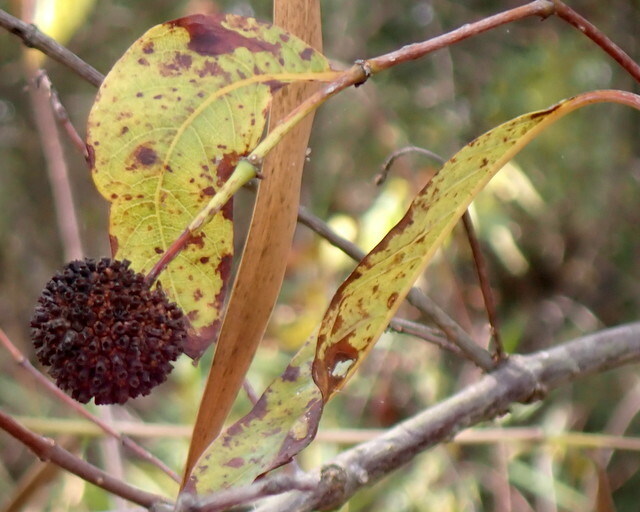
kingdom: Plantae
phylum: Tracheophyta
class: Magnoliopsida
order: Gentianales
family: Rubiaceae
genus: Cephalanthus
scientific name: Cephalanthus occidentalis
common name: Button-willow
